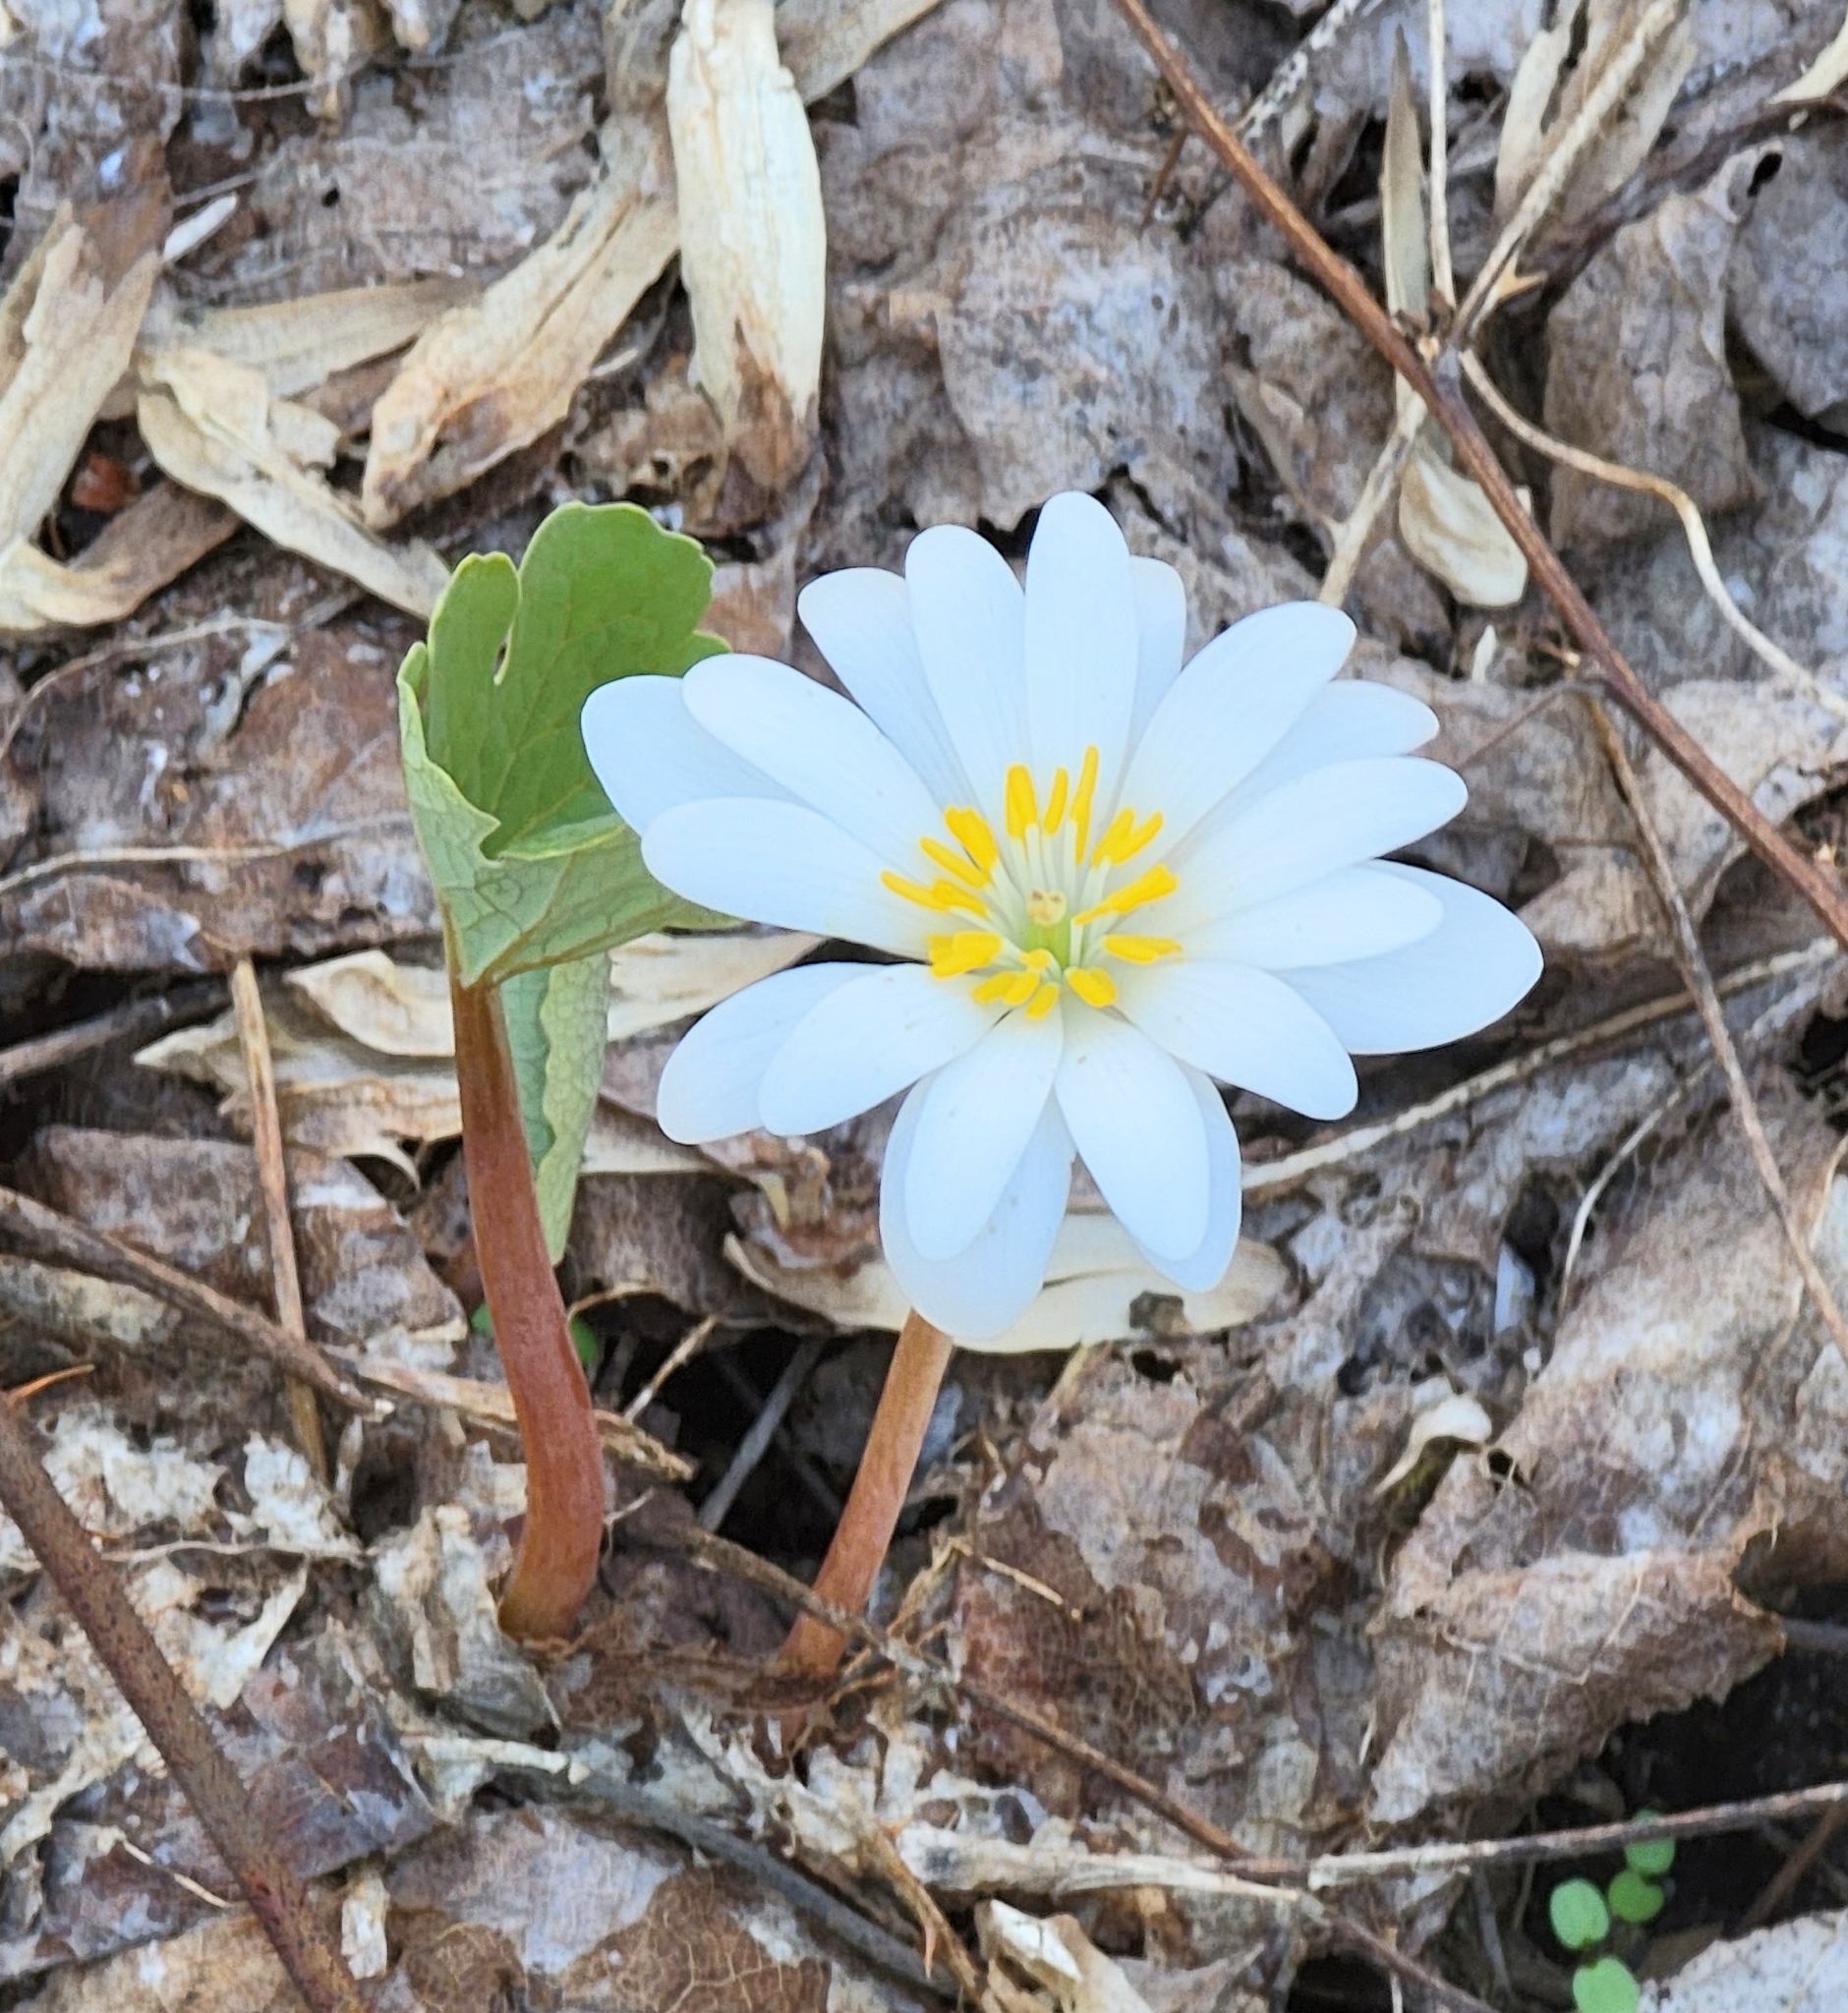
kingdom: Plantae
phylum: Tracheophyta
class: Magnoliopsida
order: Ranunculales
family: Papaveraceae
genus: Sanguinaria
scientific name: Sanguinaria canadensis
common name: Bloodroot
